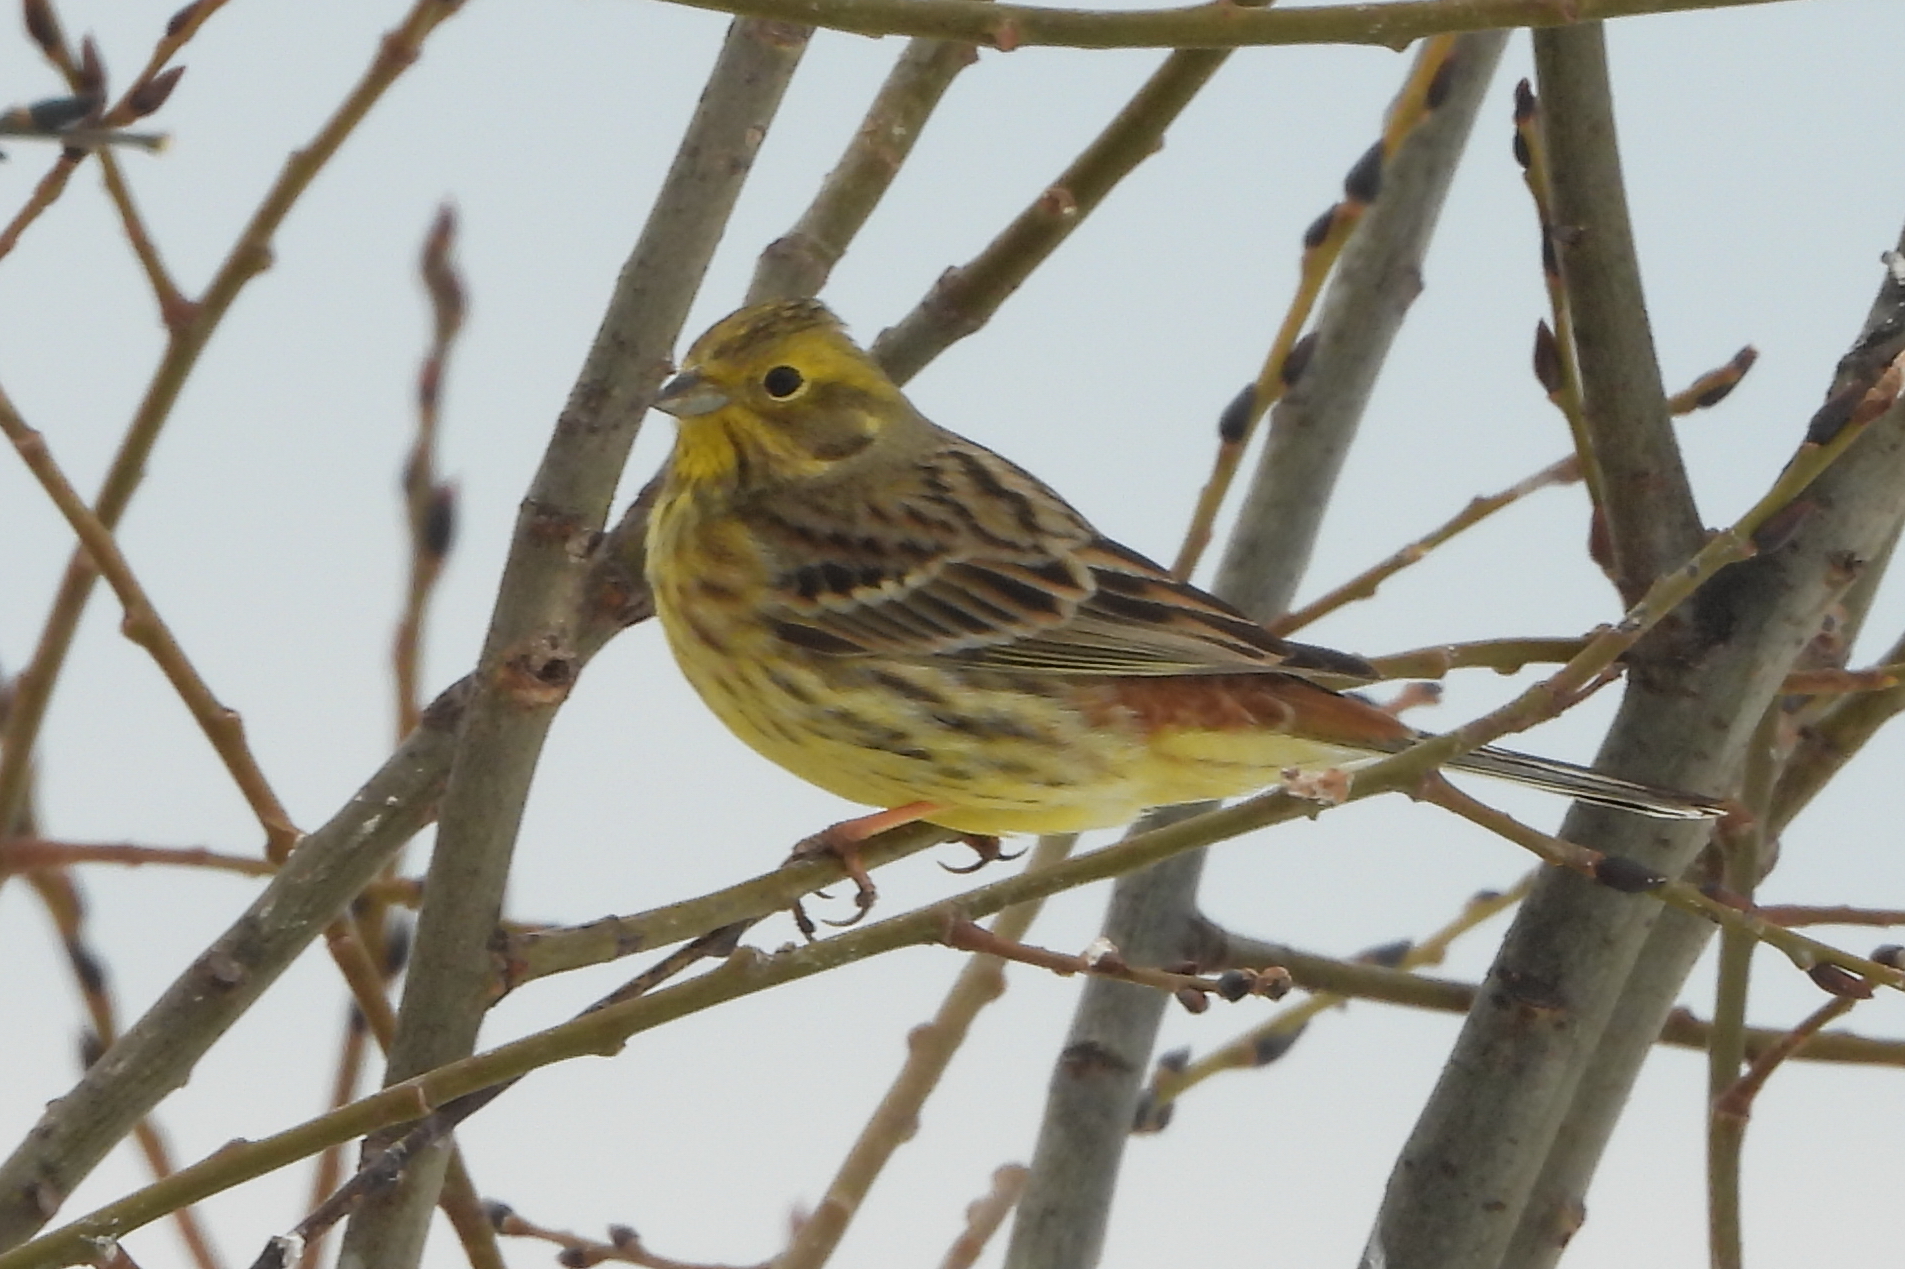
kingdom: Animalia
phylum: Chordata
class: Aves
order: Passeriformes
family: Emberizidae
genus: Emberiza
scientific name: Emberiza citrinella
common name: Yellowhammer
